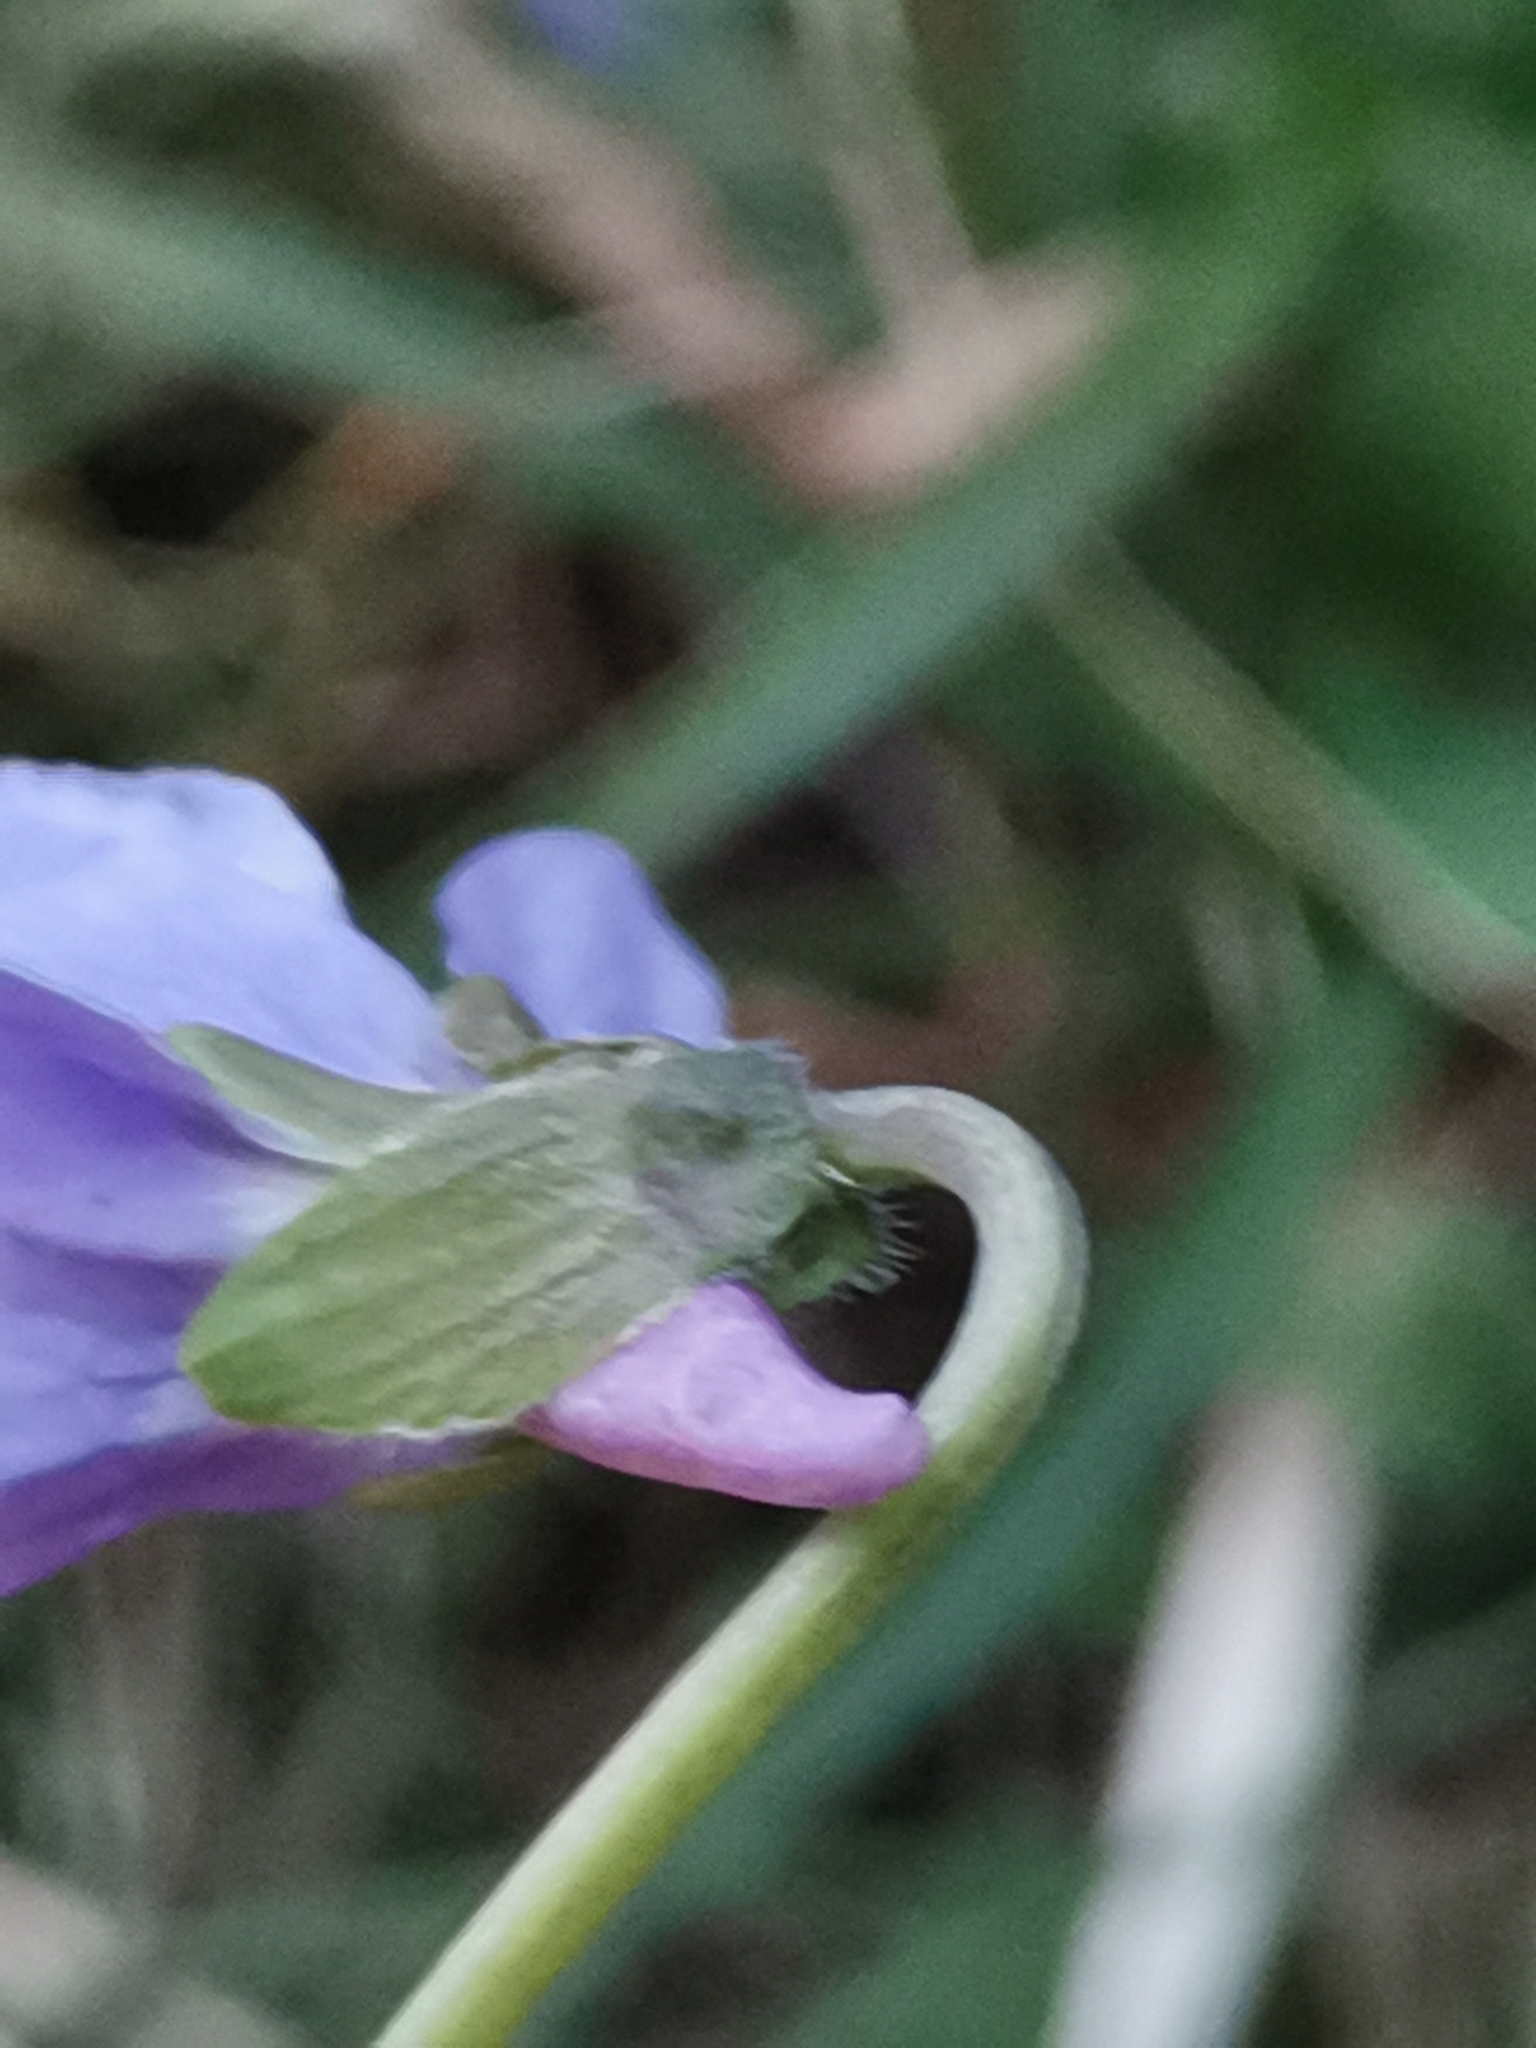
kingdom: Plantae
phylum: Tracheophyta
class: Magnoliopsida
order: Malpighiales
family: Violaceae
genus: Viola
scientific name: Viola hirta
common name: Hairy violet
